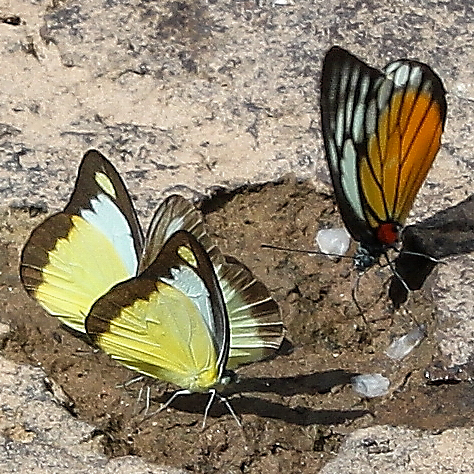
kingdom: Animalia
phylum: Arthropoda
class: Insecta
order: Lepidoptera
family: Pieridae
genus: Appias
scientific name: Appias lyncida
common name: Chocolate albatross
